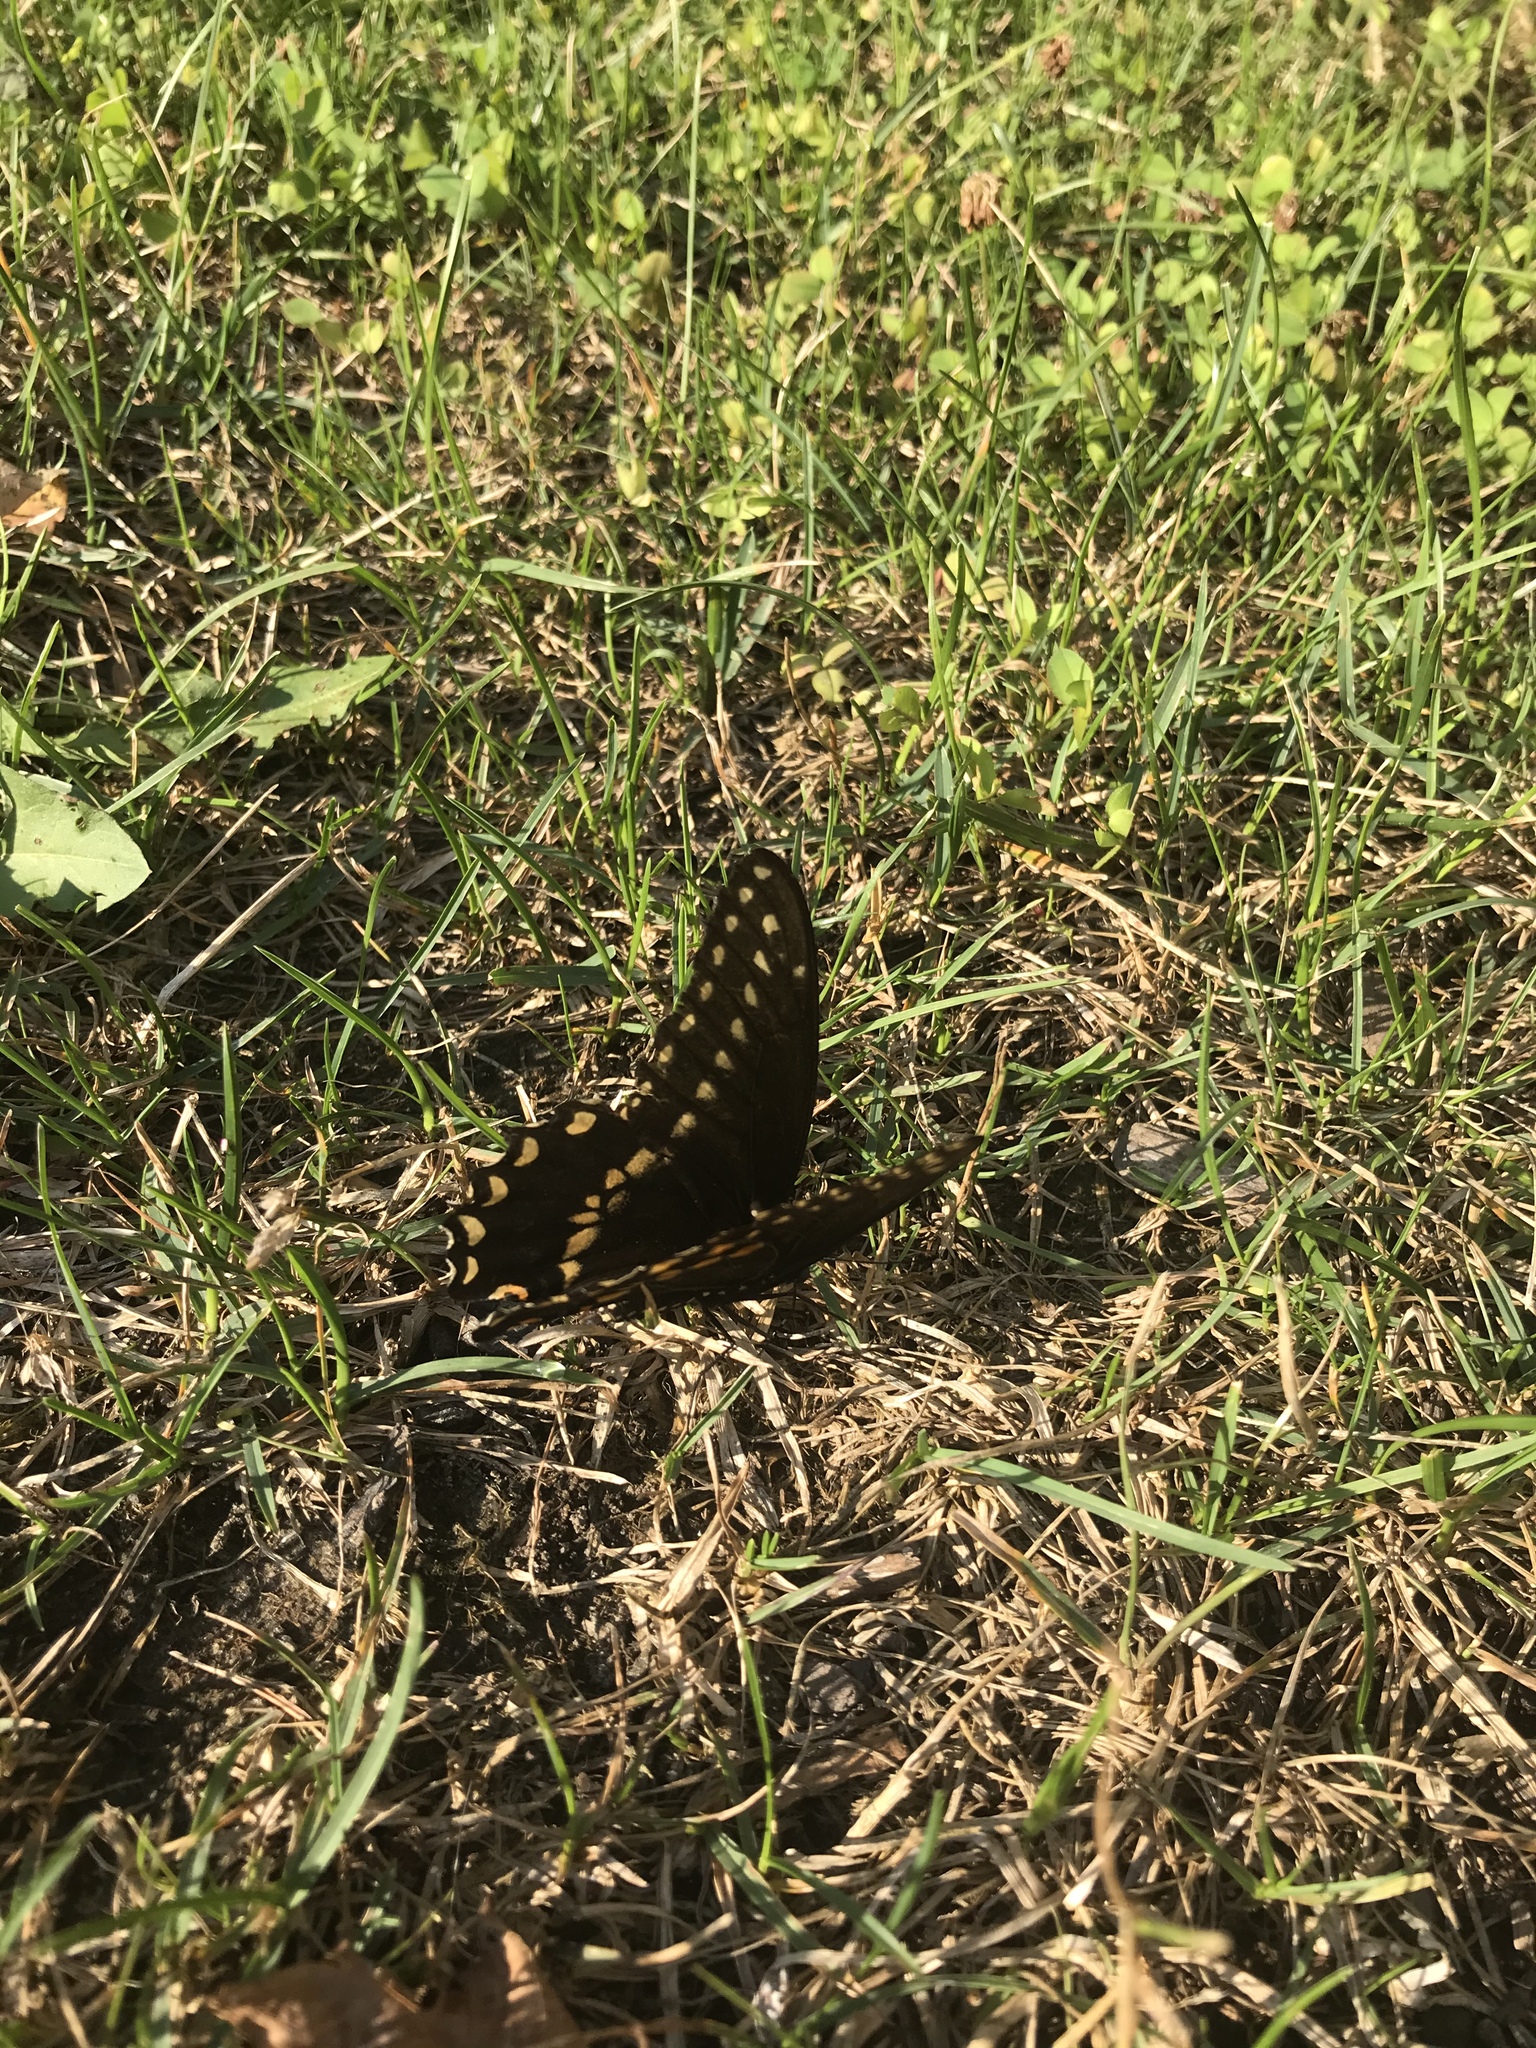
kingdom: Animalia
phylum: Arthropoda
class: Insecta
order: Lepidoptera
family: Papilionidae
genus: Papilio
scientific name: Papilio polyxenes
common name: Black swallowtail
